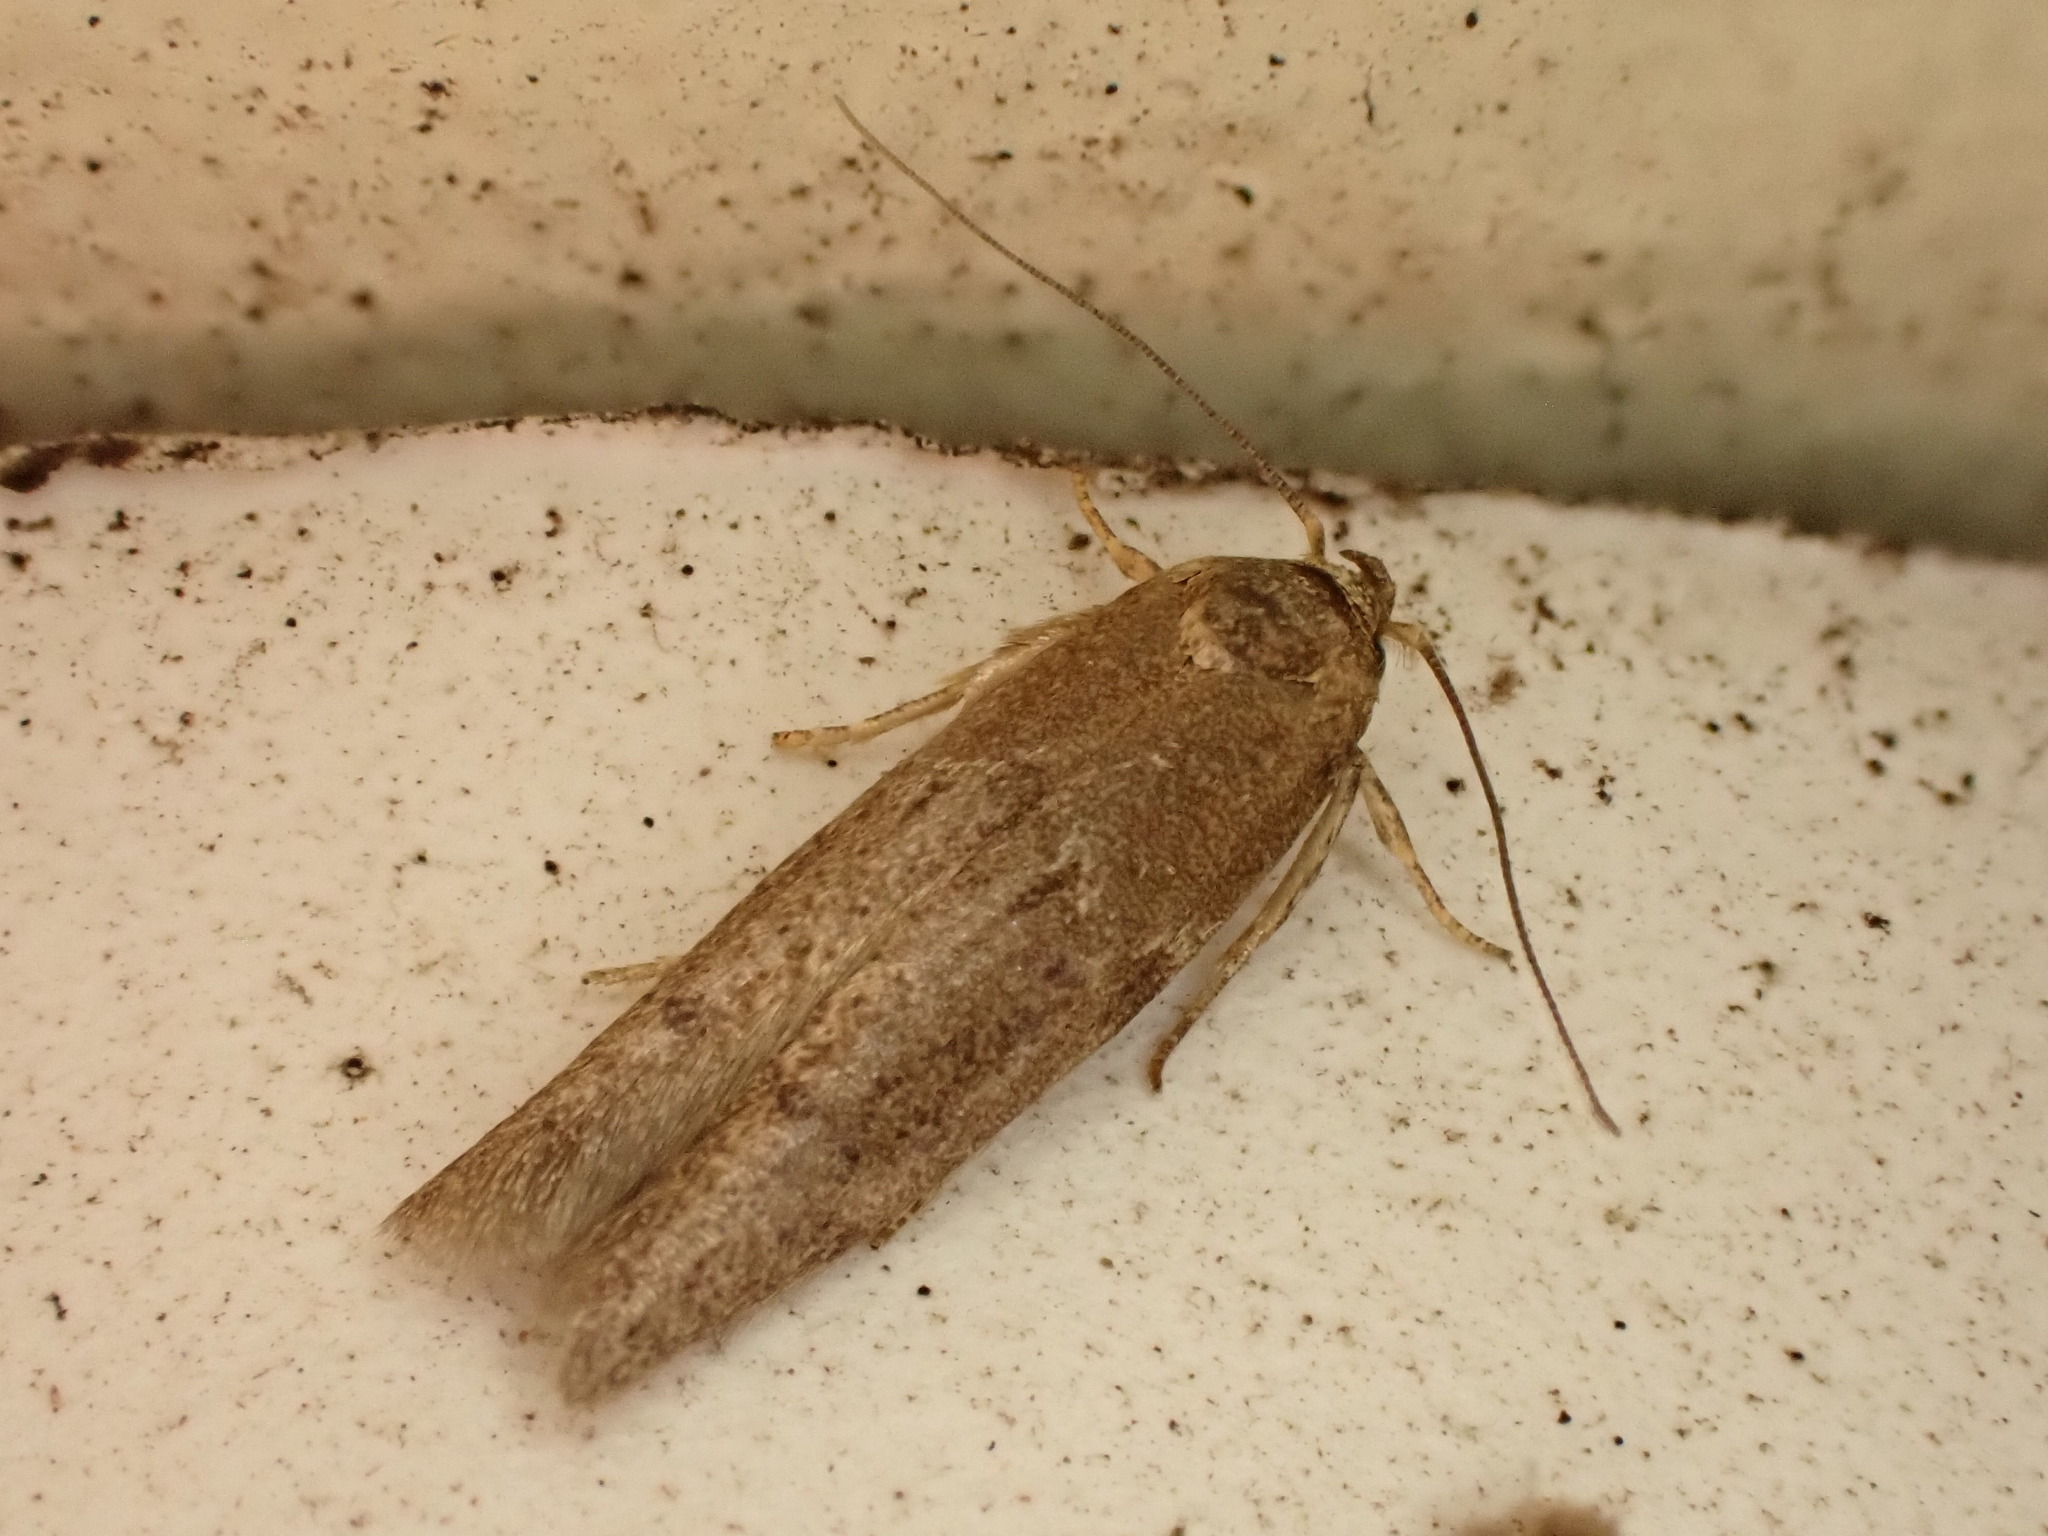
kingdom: Animalia
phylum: Arthropoda
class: Insecta
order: Lepidoptera
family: Blastobasidae
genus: Blastobasis
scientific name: Blastobasis tarda
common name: Blastobasid moth
